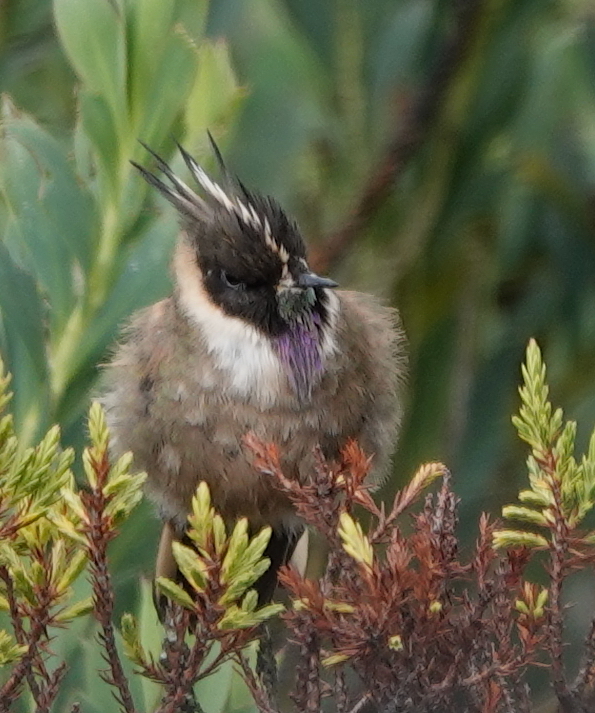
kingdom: Animalia
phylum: Chordata
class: Aves
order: Apodiformes
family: Trochilidae
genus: Oxypogon
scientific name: Oxypogon stuebelii
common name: Buffy helmetcrest
